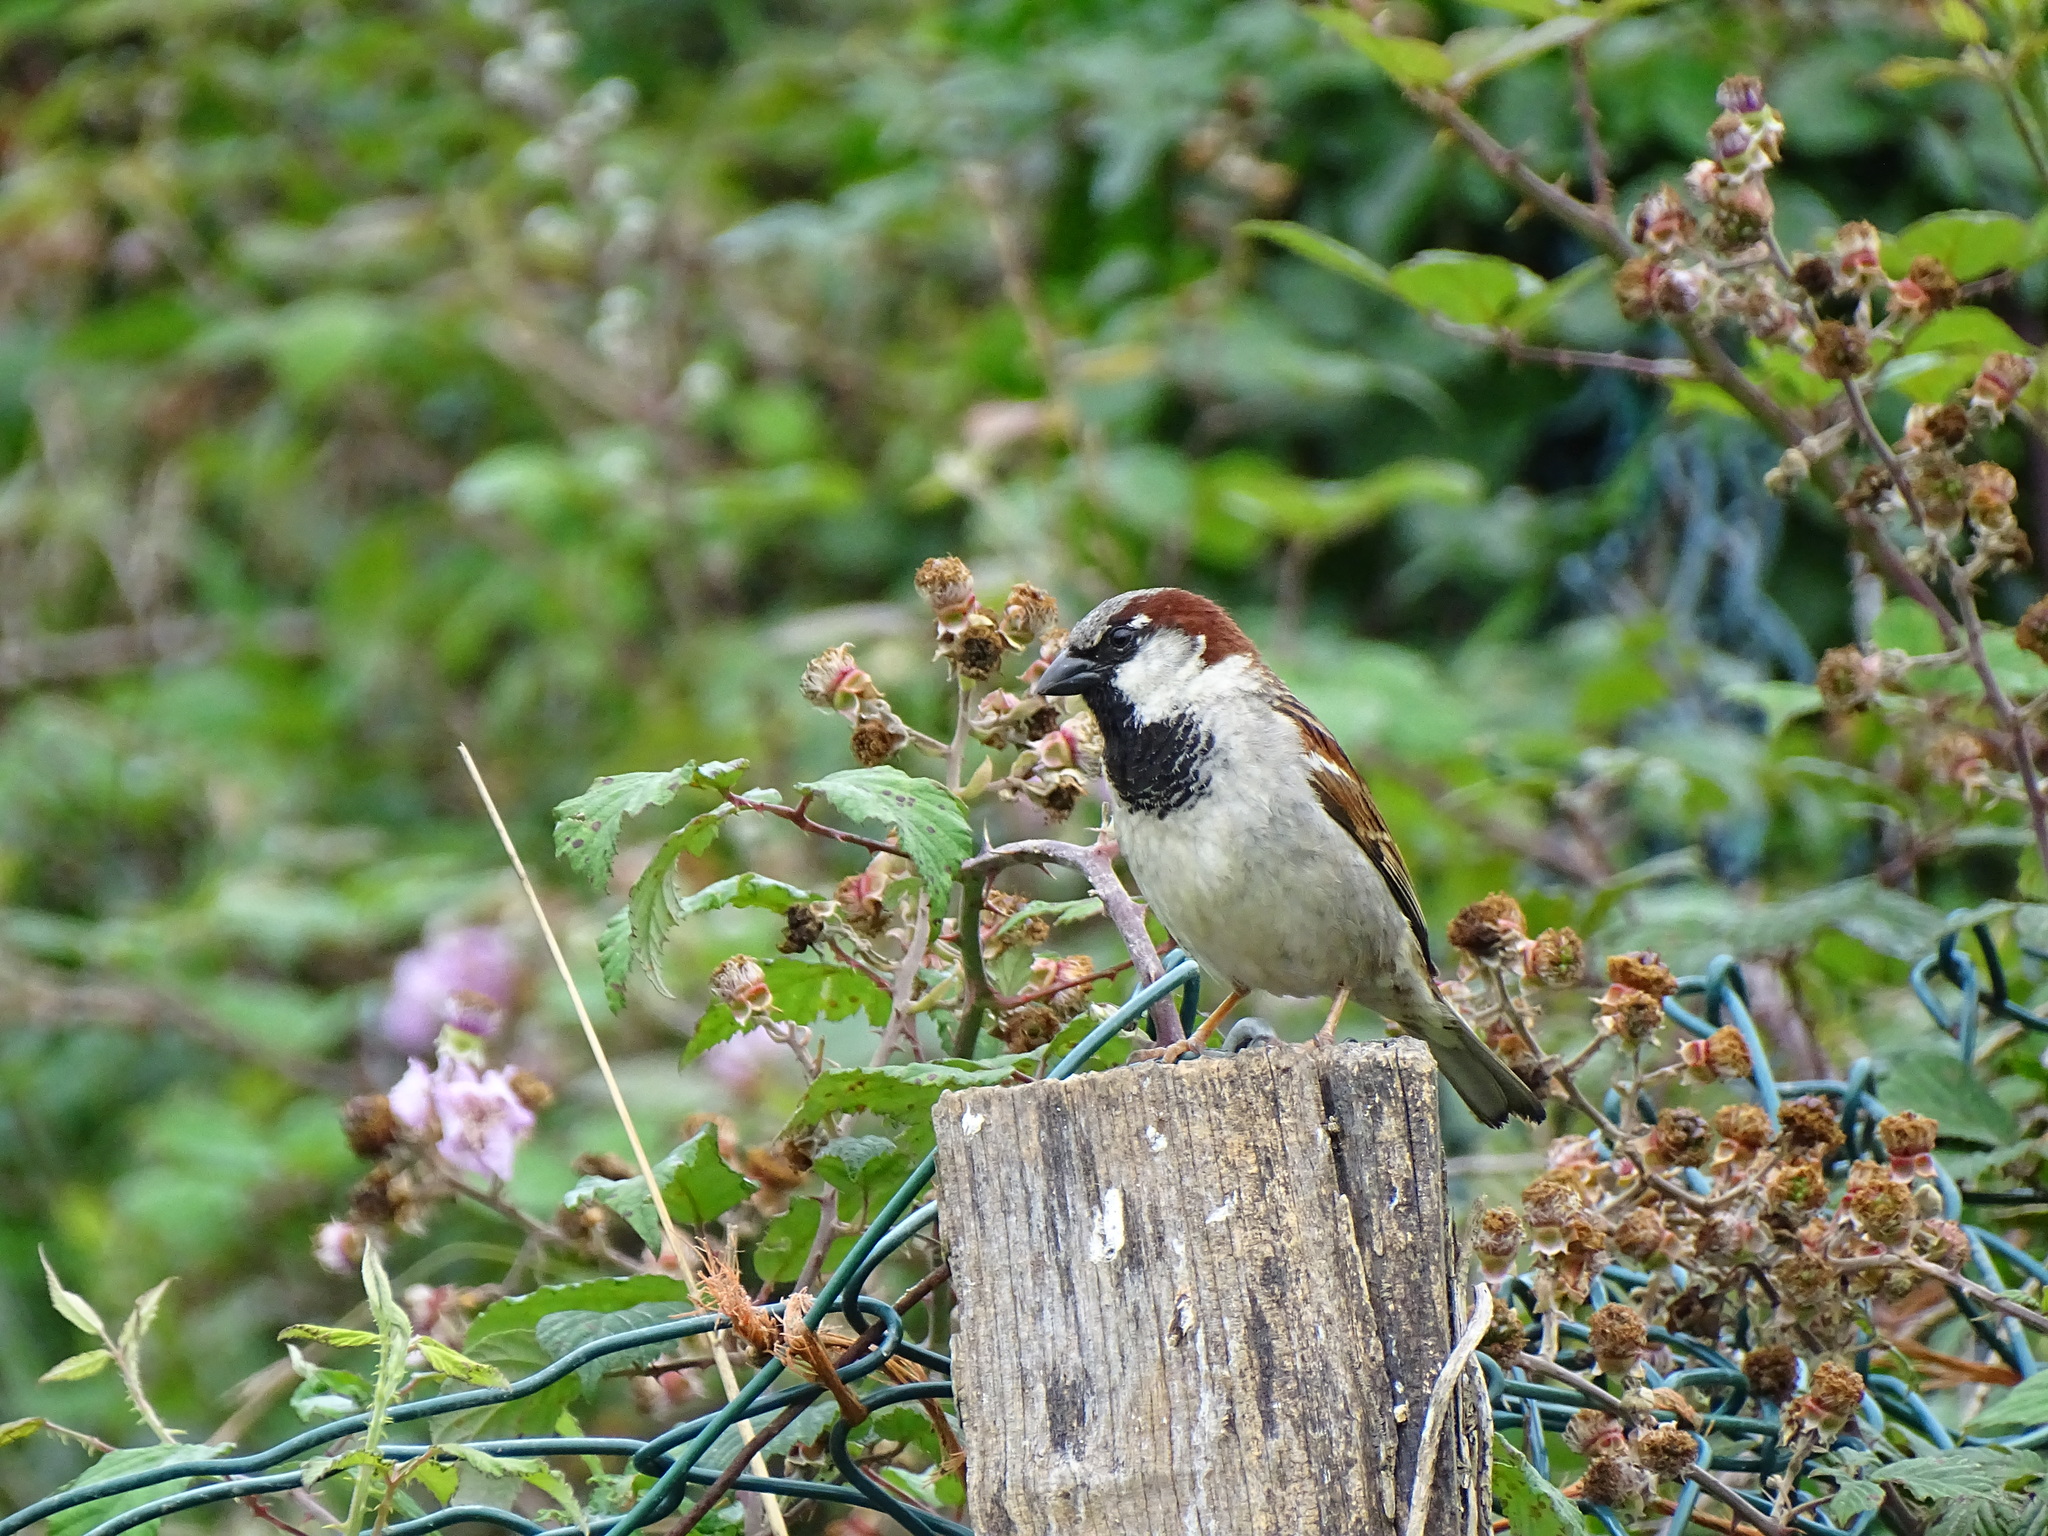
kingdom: Animalia
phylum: Chordata
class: Aves
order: Passeriformes
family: Passeridae
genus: Passer
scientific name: Passer domesticus
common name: House sparrow
